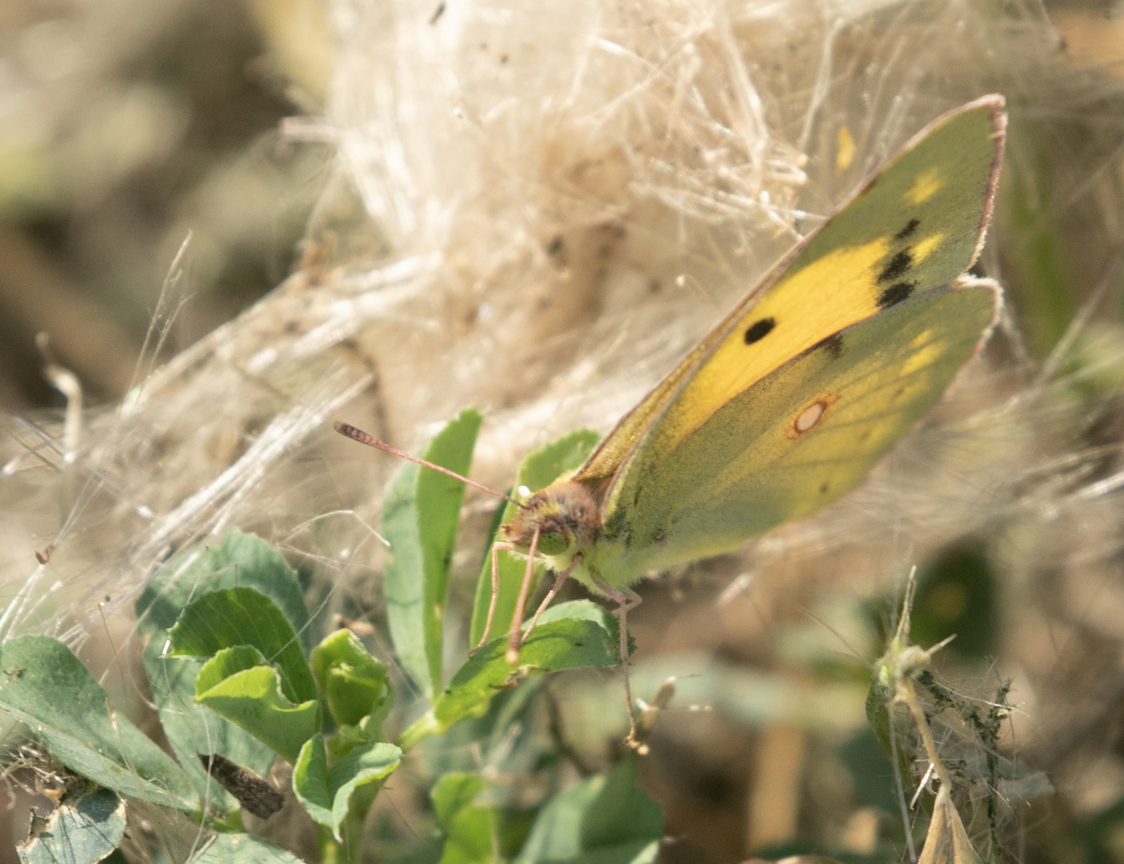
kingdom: Animalia
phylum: Arthropoda
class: Insecta
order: Lepidoptera
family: Pieridae
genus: Colias
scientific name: Colias croceus
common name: Clouded yellow
